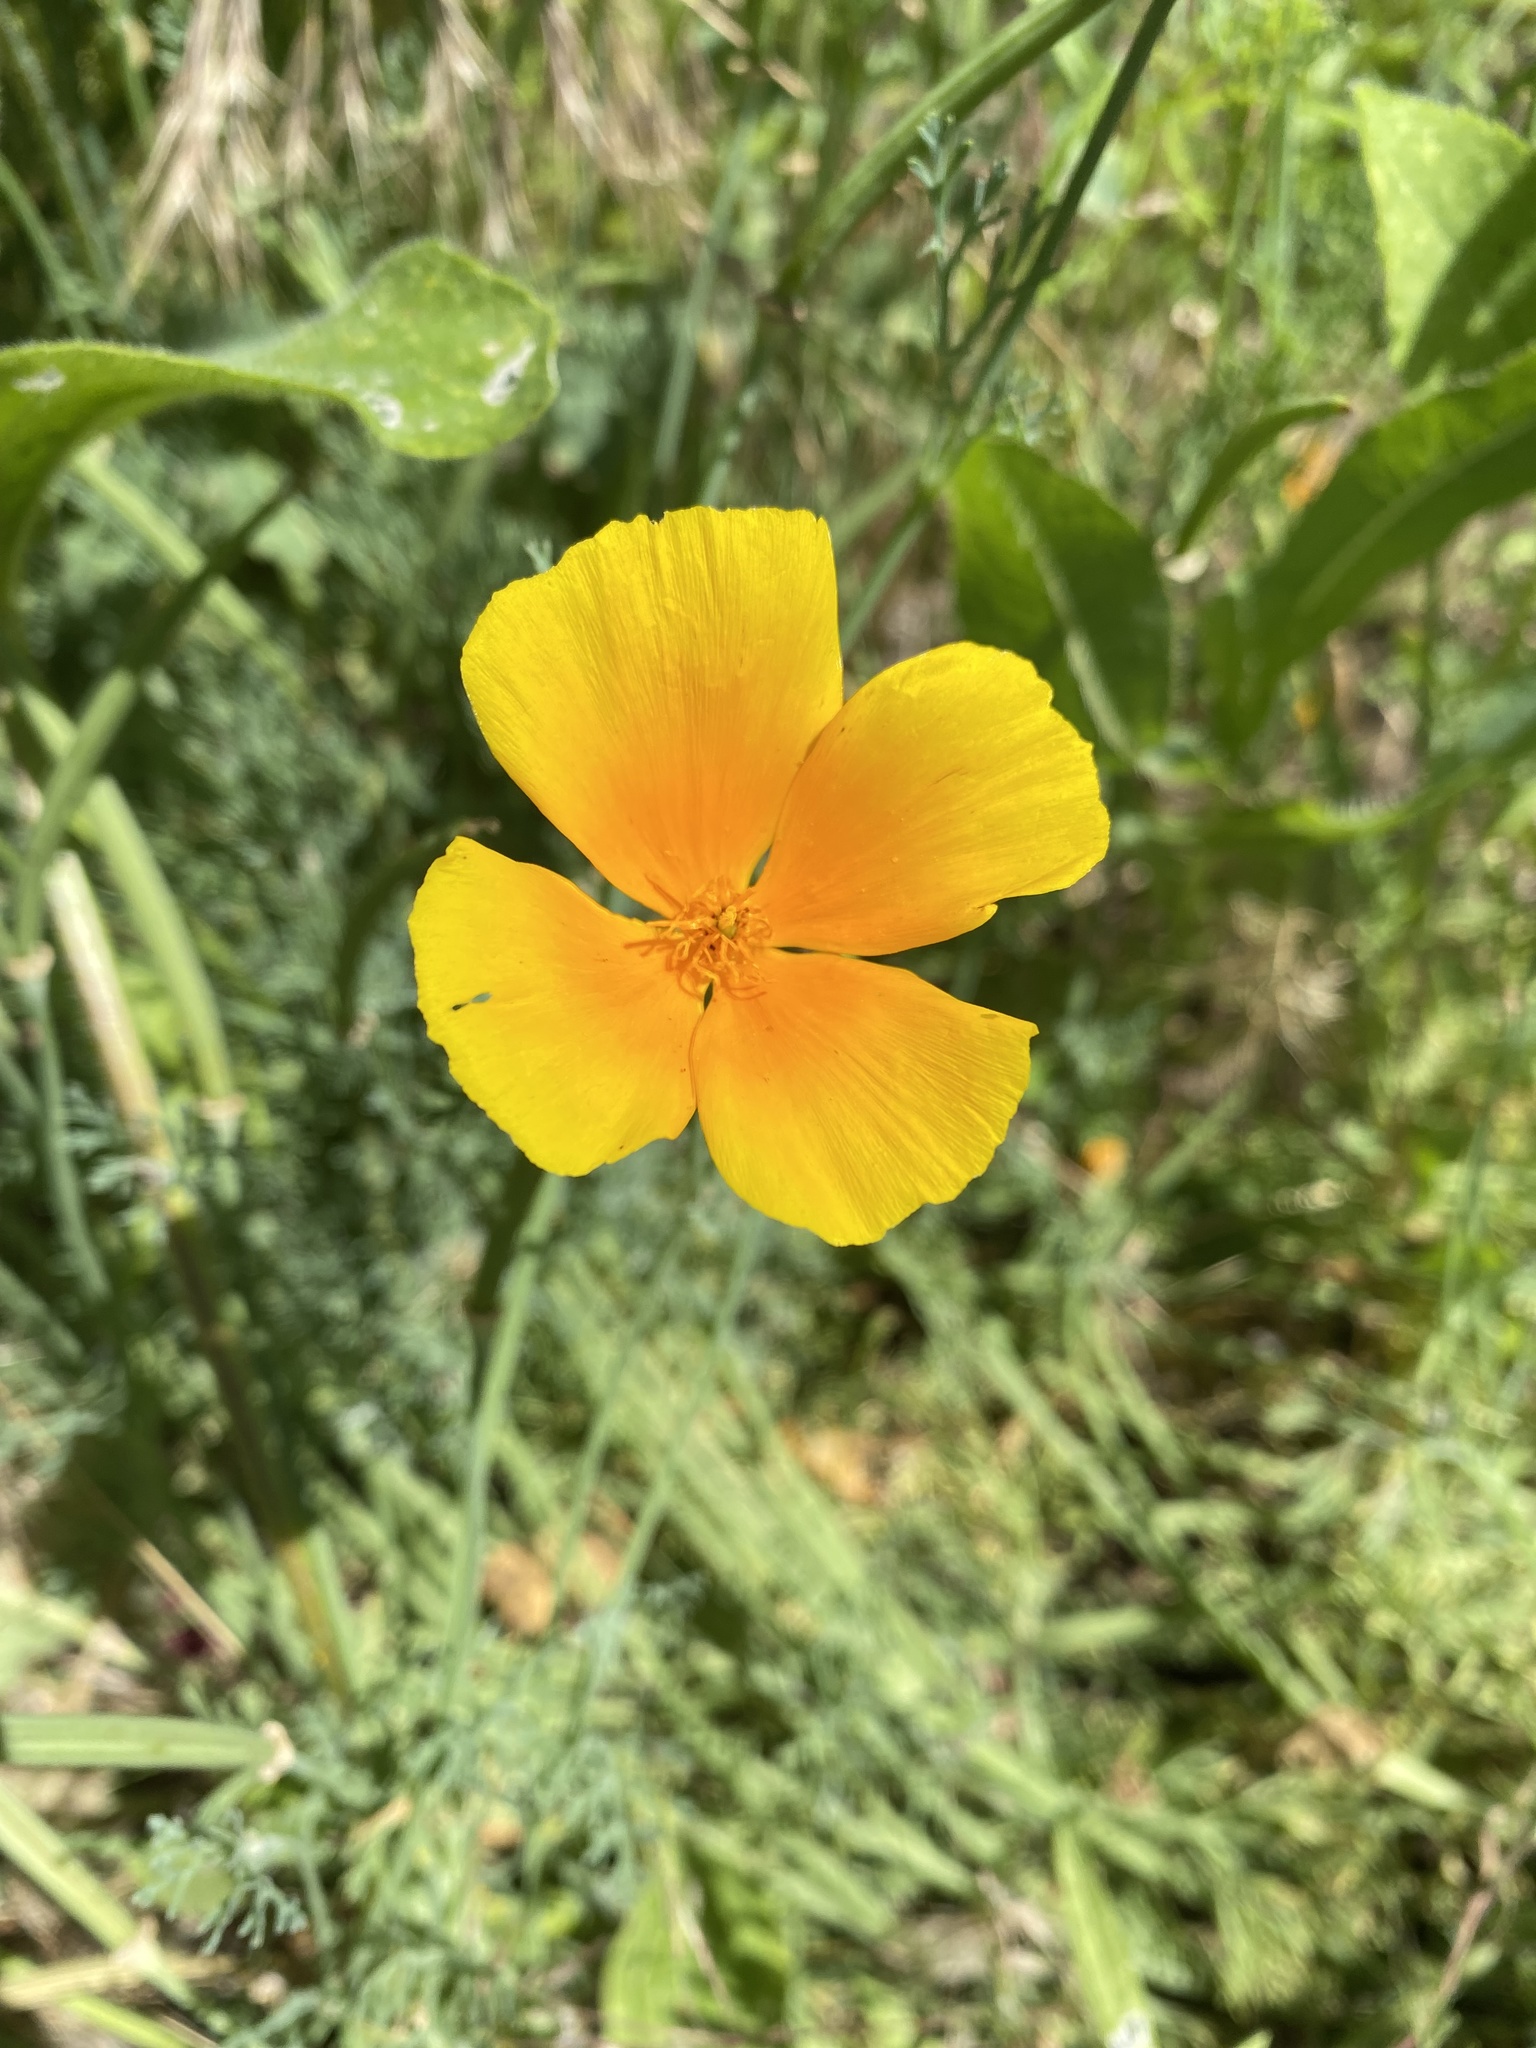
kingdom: Plantae
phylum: Tracheophyta
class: Magnoliopsida
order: Ranunculales
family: Papaveraceae
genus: Eschscholzia
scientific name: Eschscholzia californica
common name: California poppy
